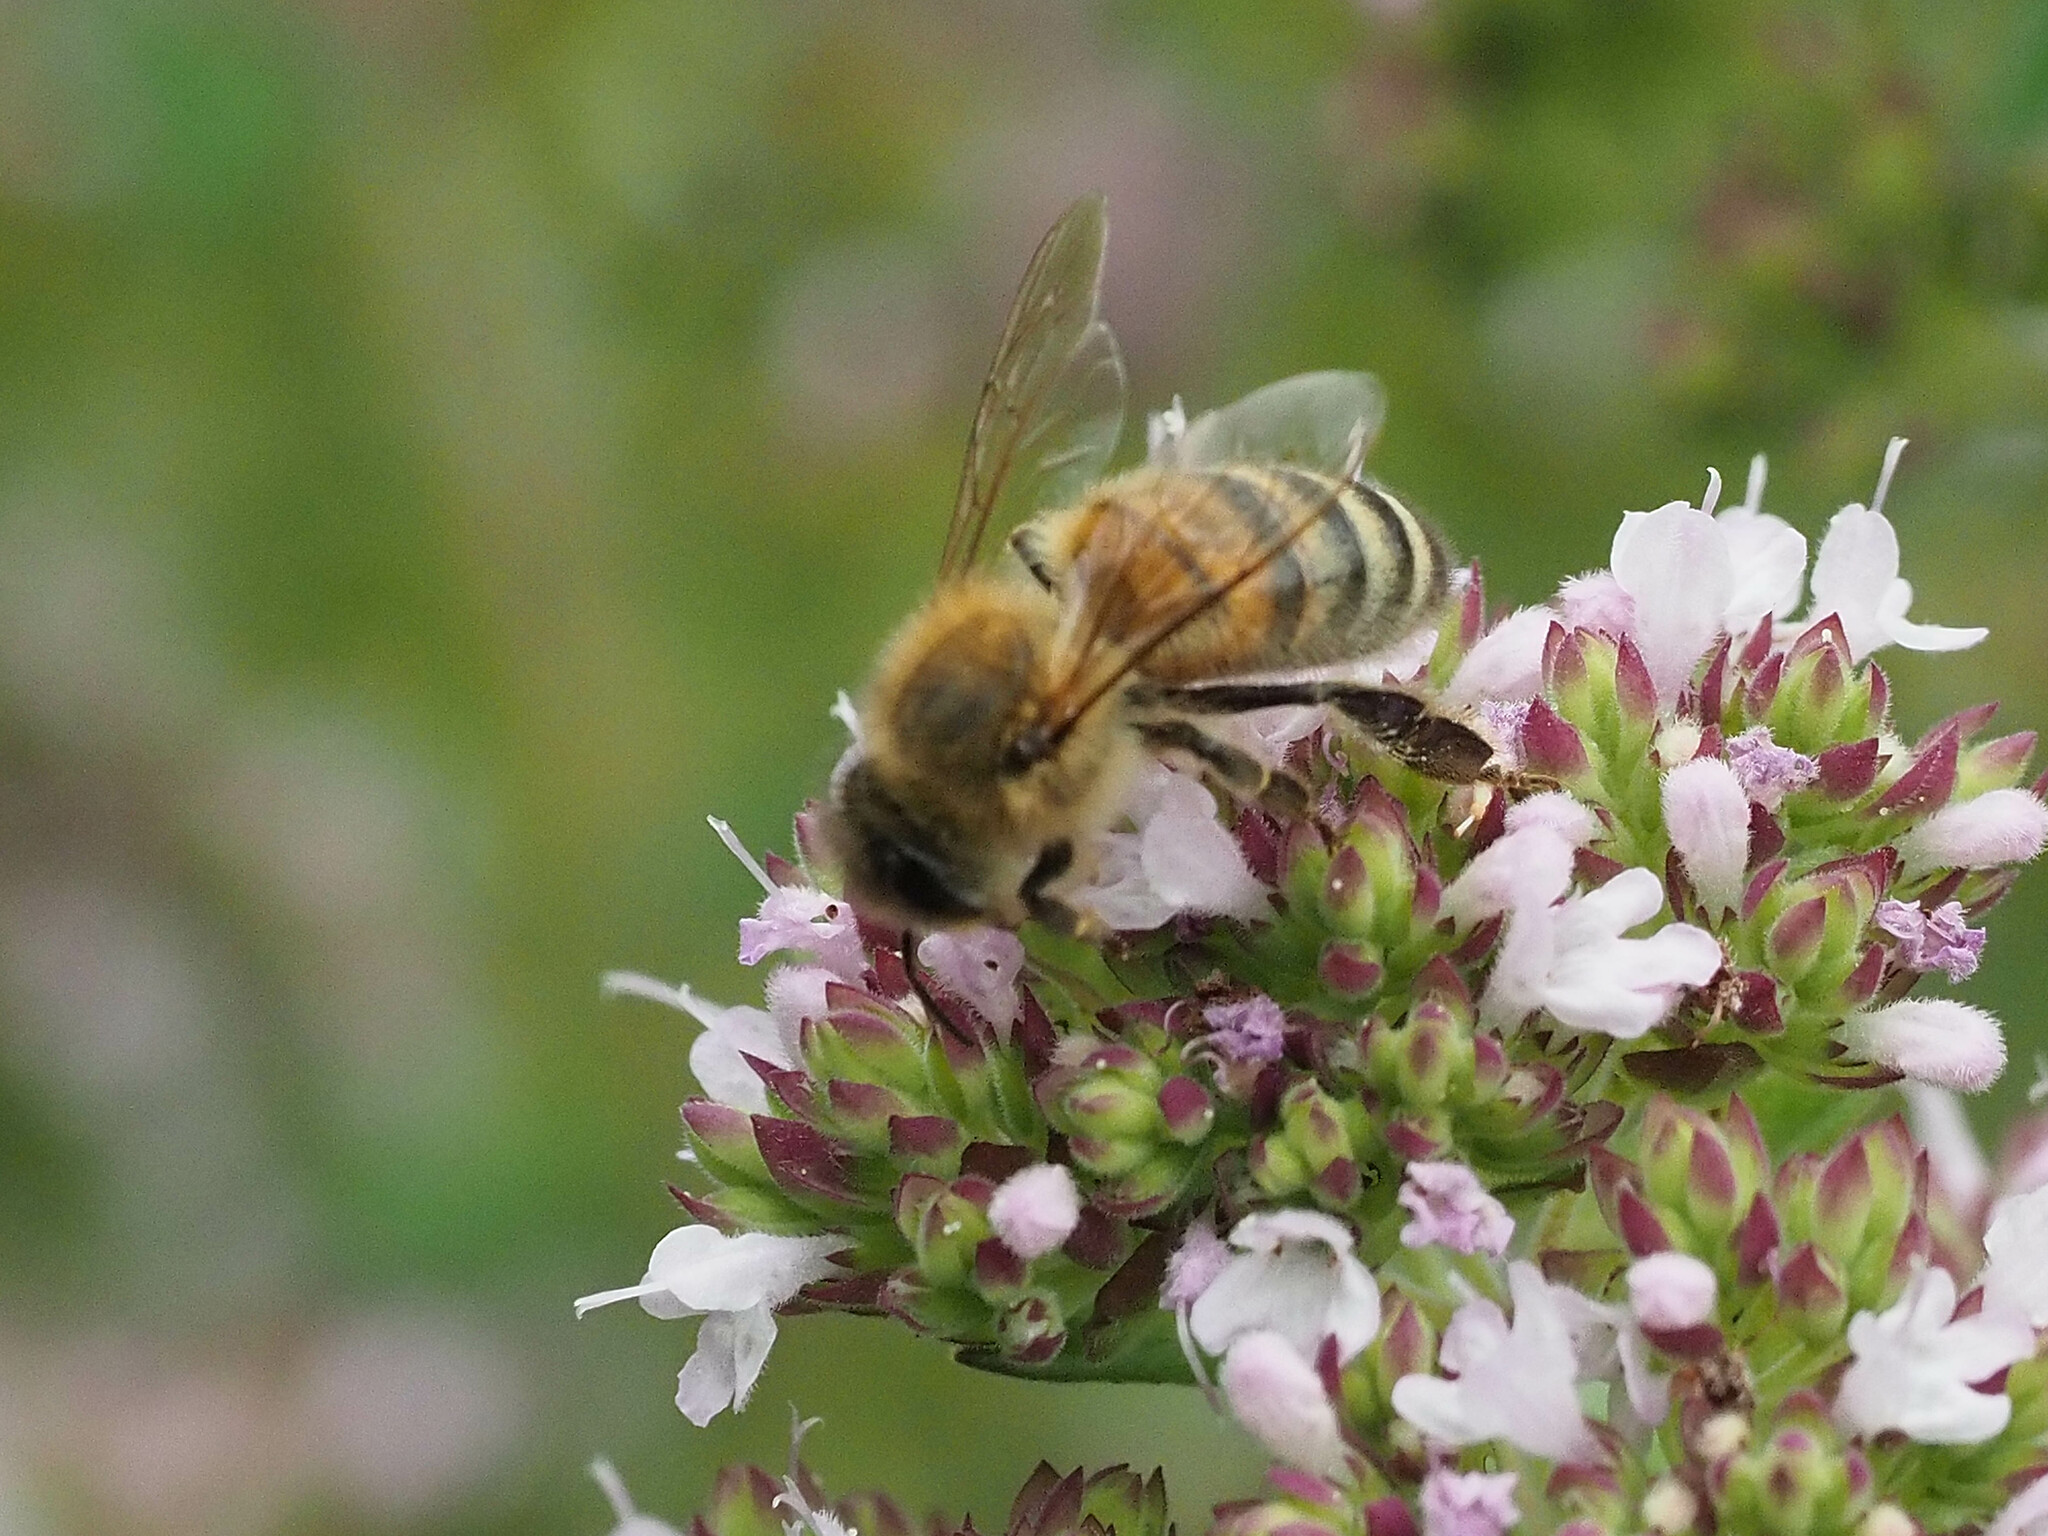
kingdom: Animalia
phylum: Arthropoda
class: Insecta
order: Hymenoptera
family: Apidae
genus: Apis
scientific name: Apis mellifera
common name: Honey bee
